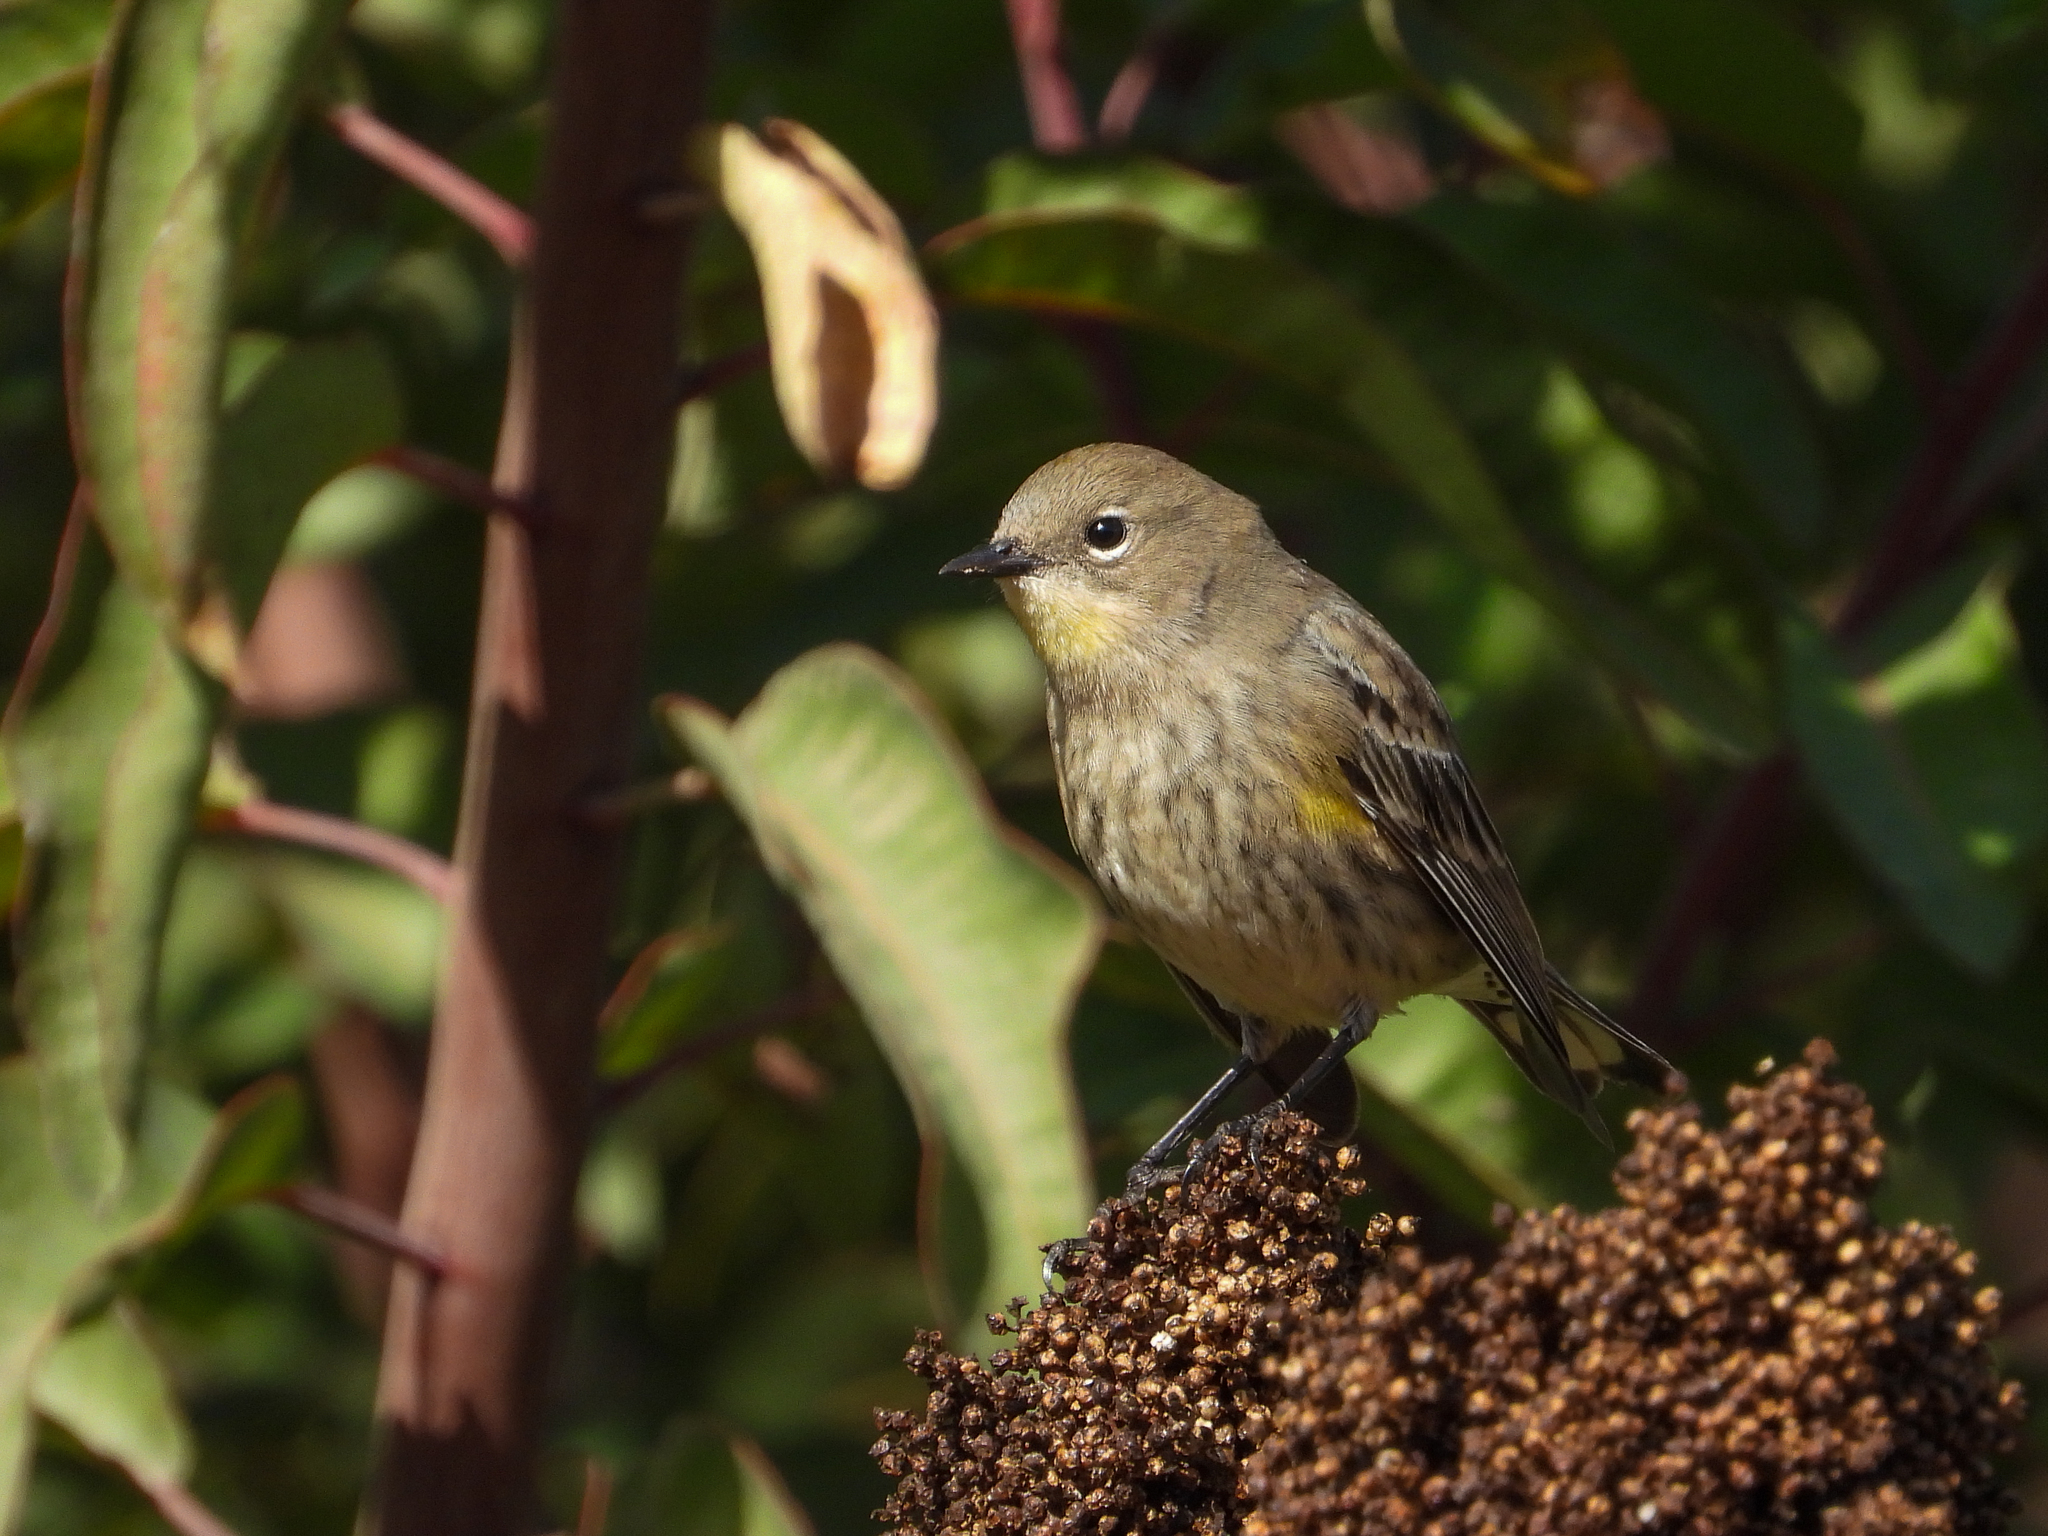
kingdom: Animalia
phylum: Chordata
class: Aves
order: Passeriformes
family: Parulidae
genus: Setophaga
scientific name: Setophaga coronata
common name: Myrtle warbler
